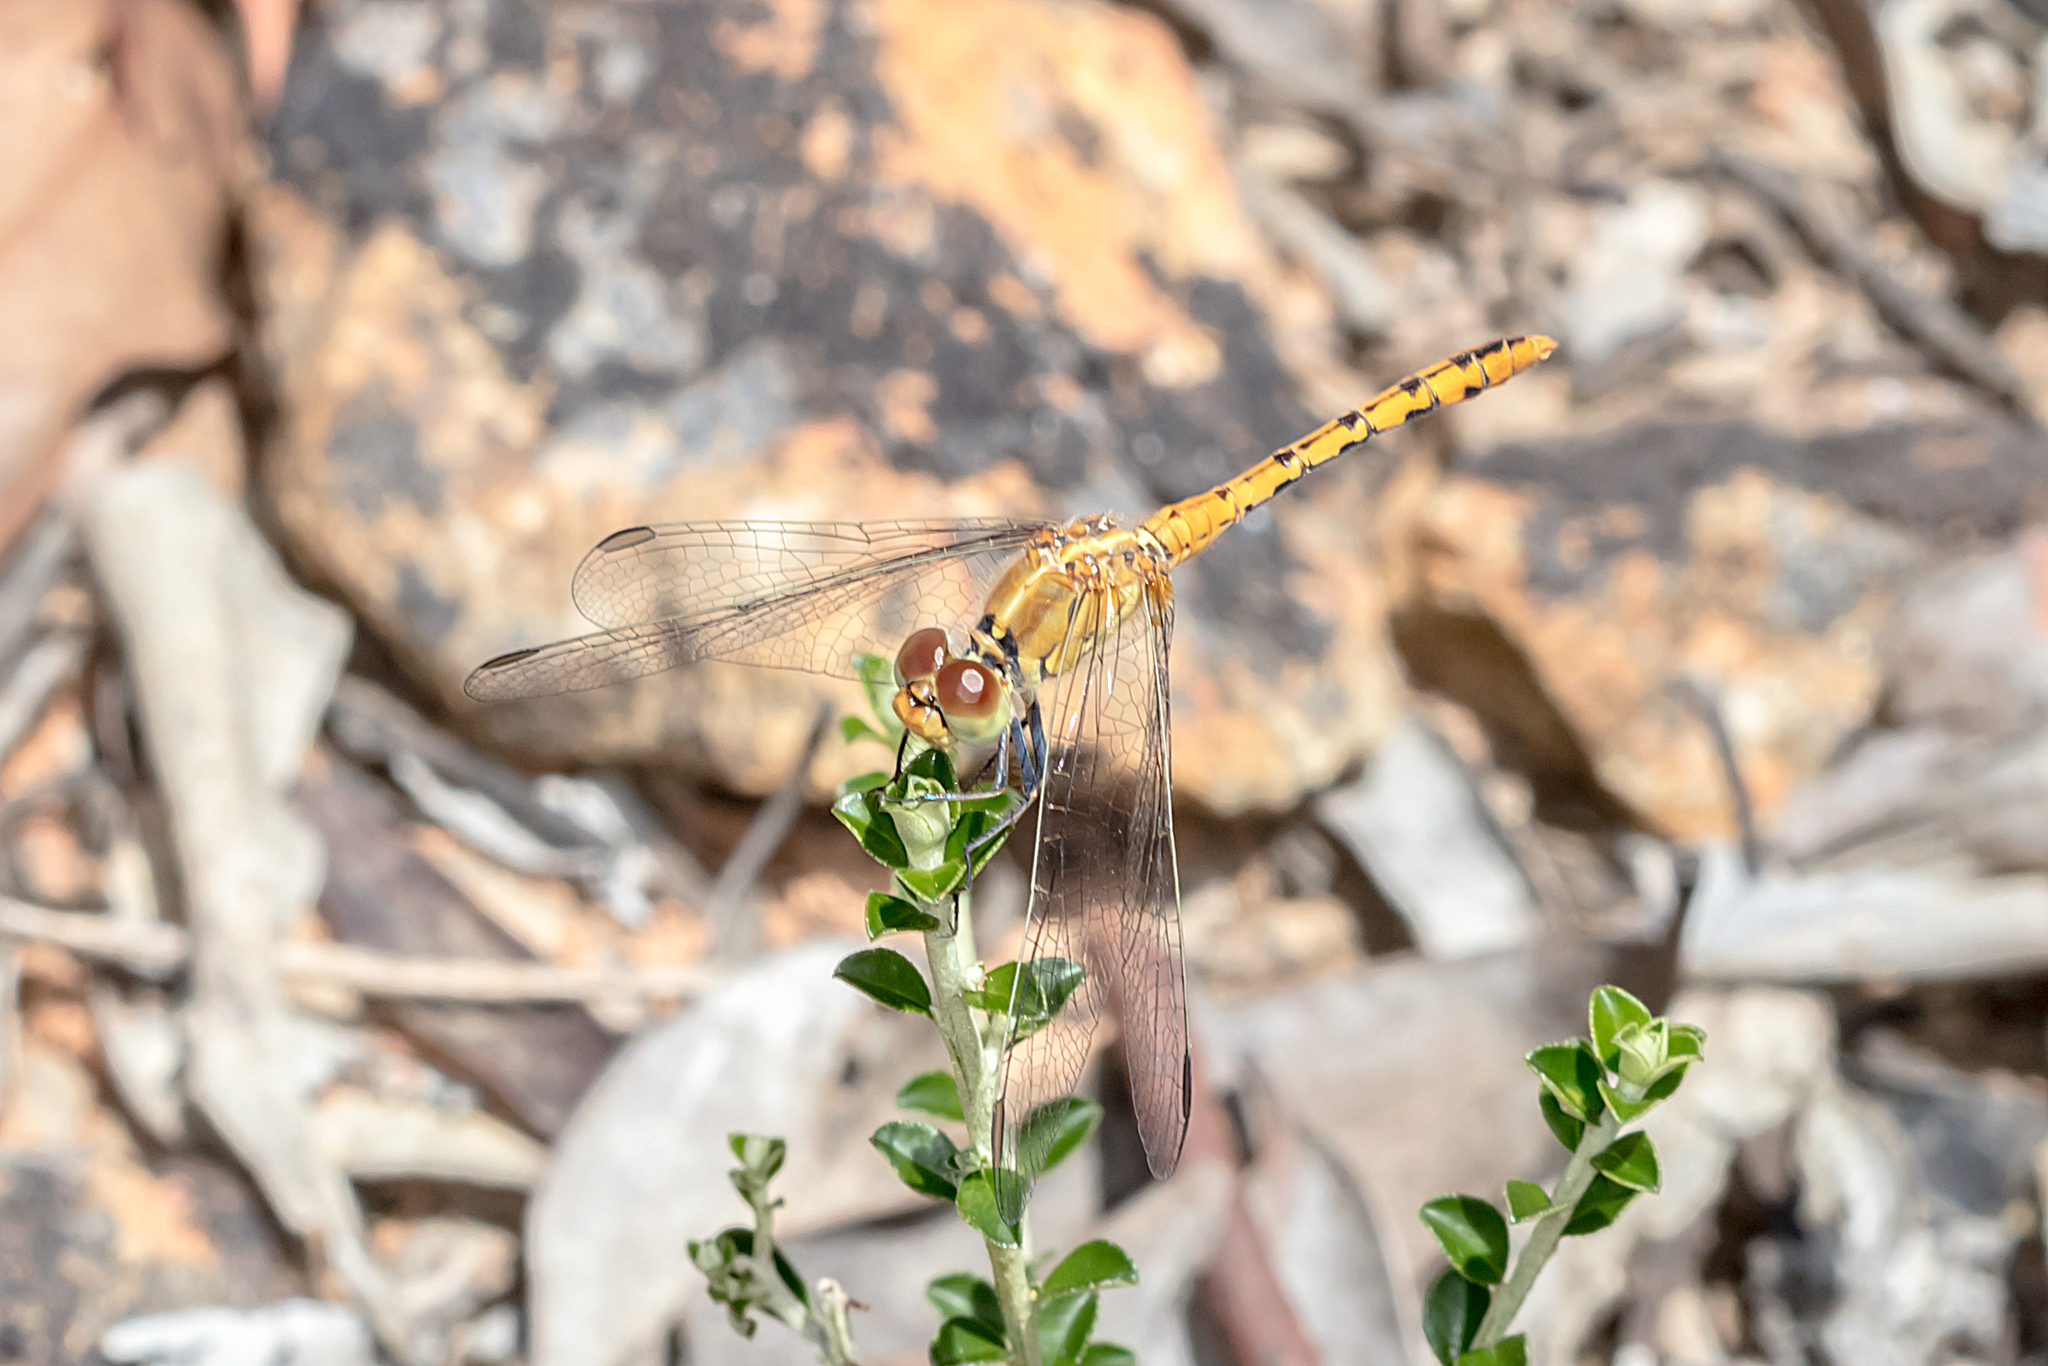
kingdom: Animalia
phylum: Arthropoda
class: Insecta
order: Odonata
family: Libellulidae
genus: Diplacodes
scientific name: Diplacodes bipunctata
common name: Red percher dragonfly
